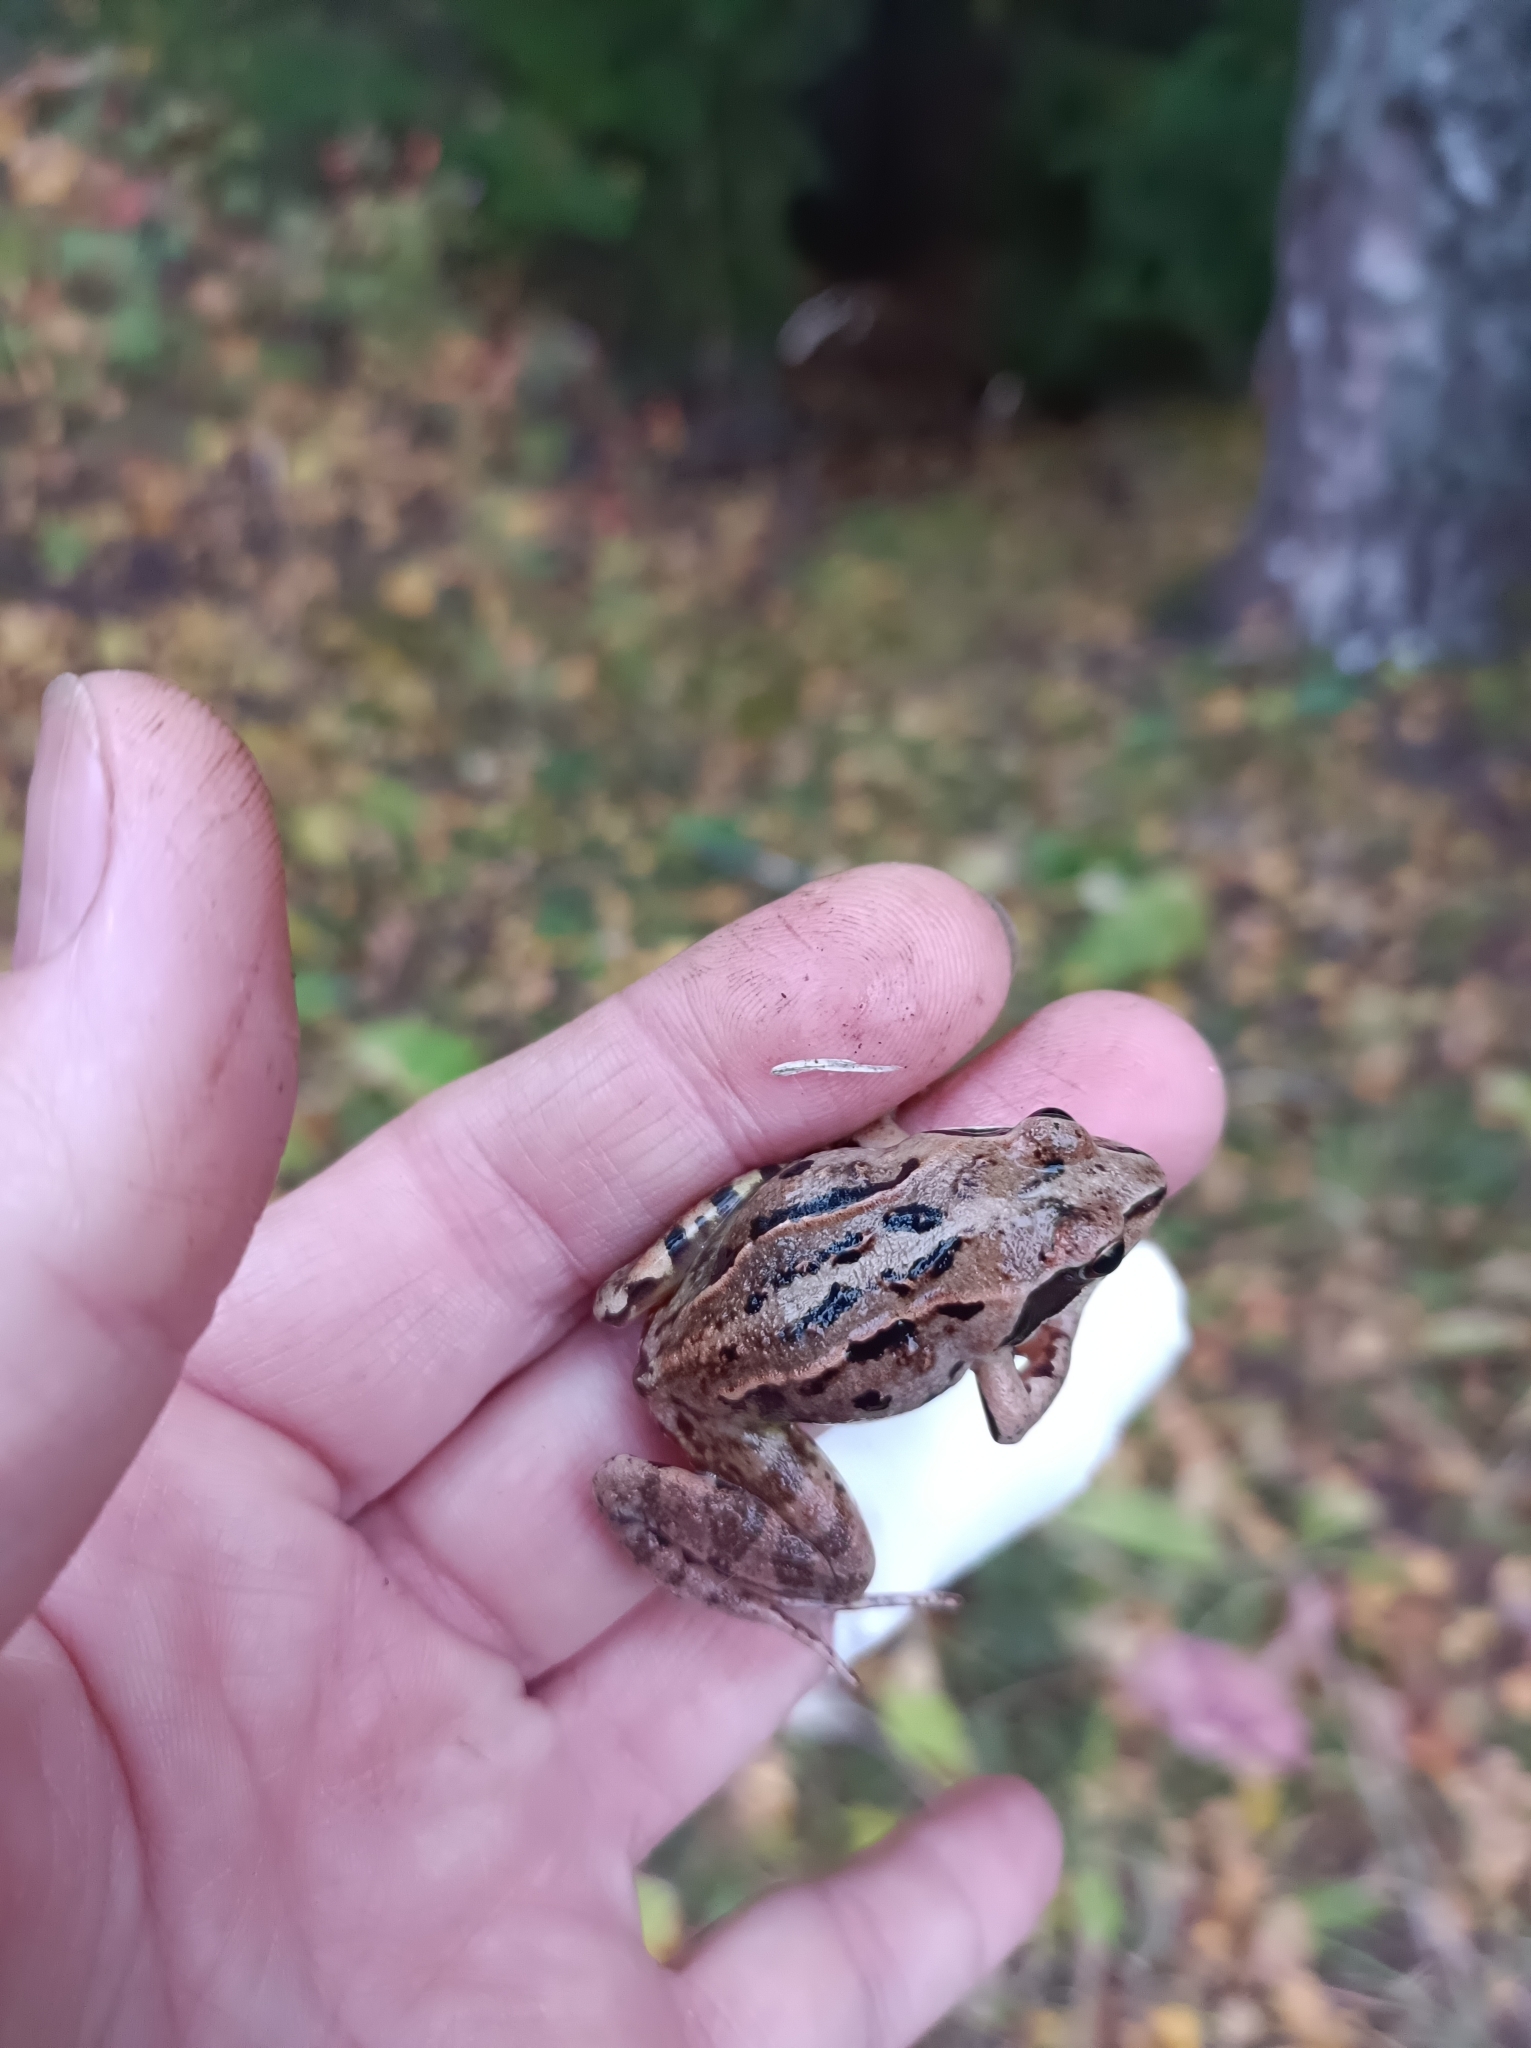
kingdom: Animalia
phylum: Chordata
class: Amphibia
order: Anura
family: Ranidae
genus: Rana
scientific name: Rana arvalis
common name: Moor frog
